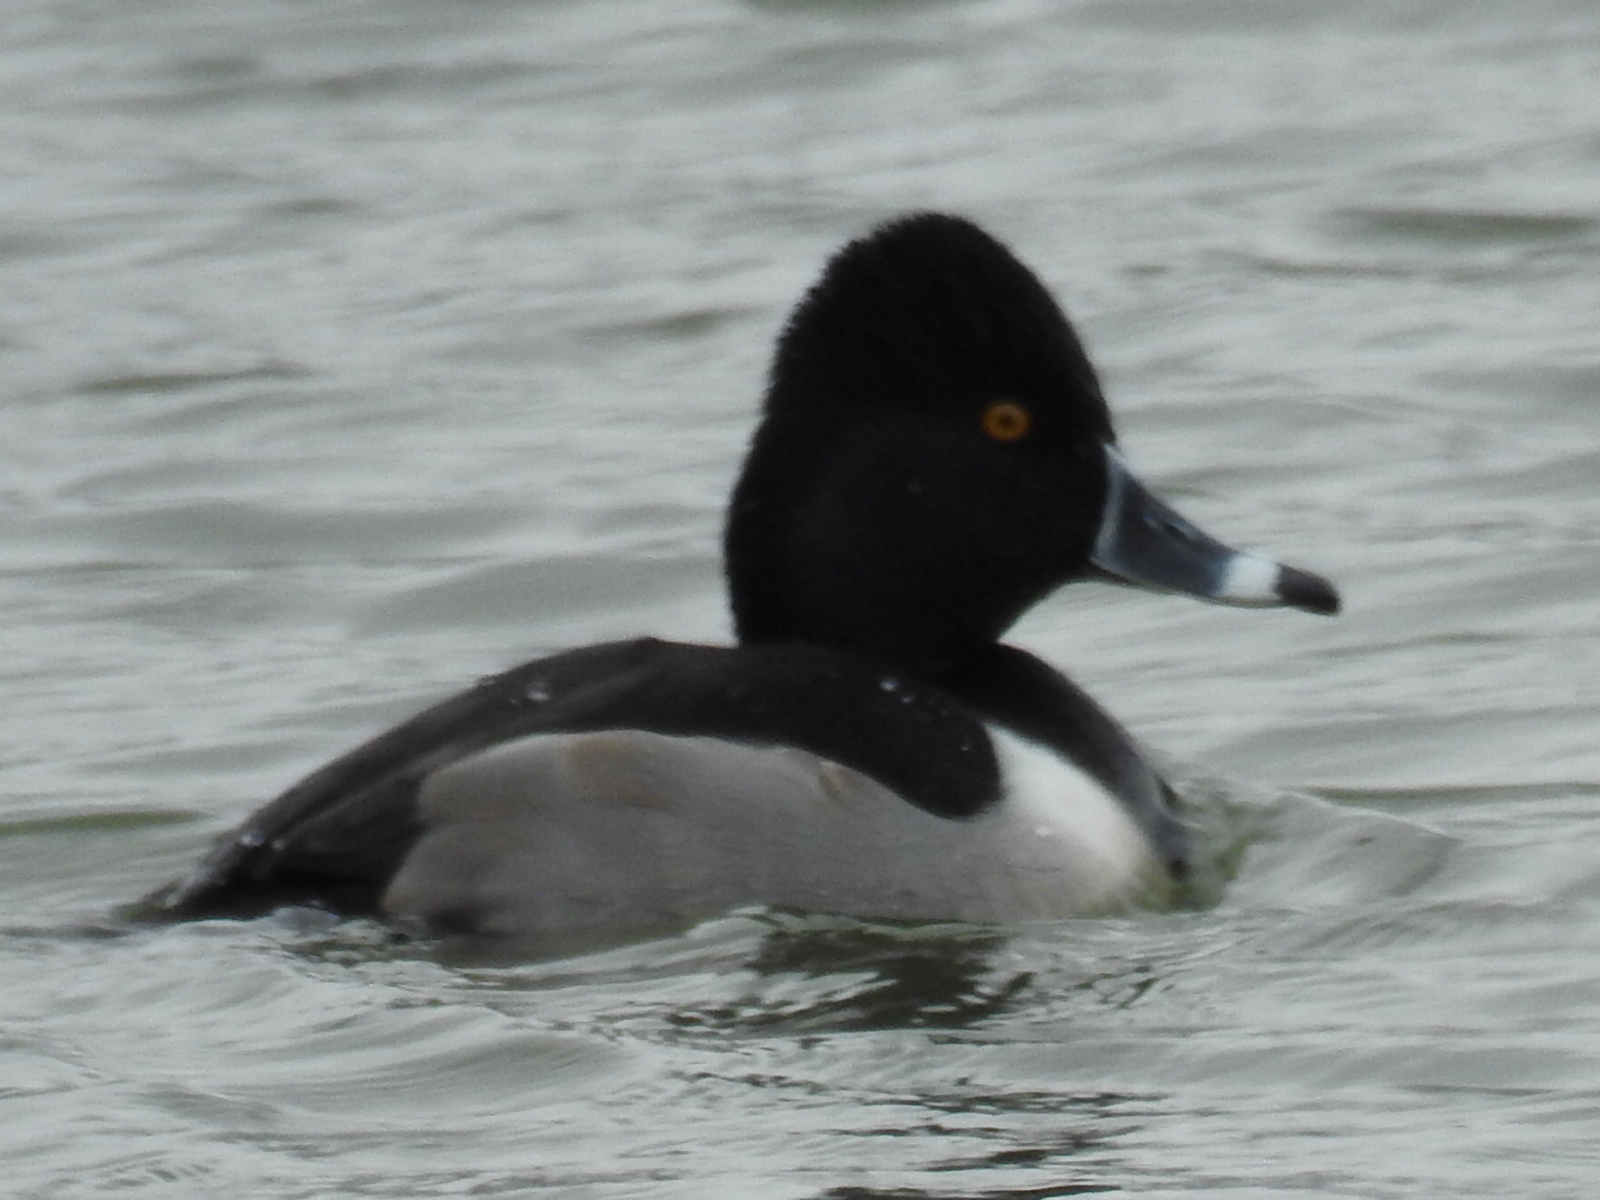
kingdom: Animalia
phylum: Chordata
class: Aves
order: Anseriformes
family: Anatidae
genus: Aythya
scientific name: Aythya collaris
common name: Ring-necked duck
